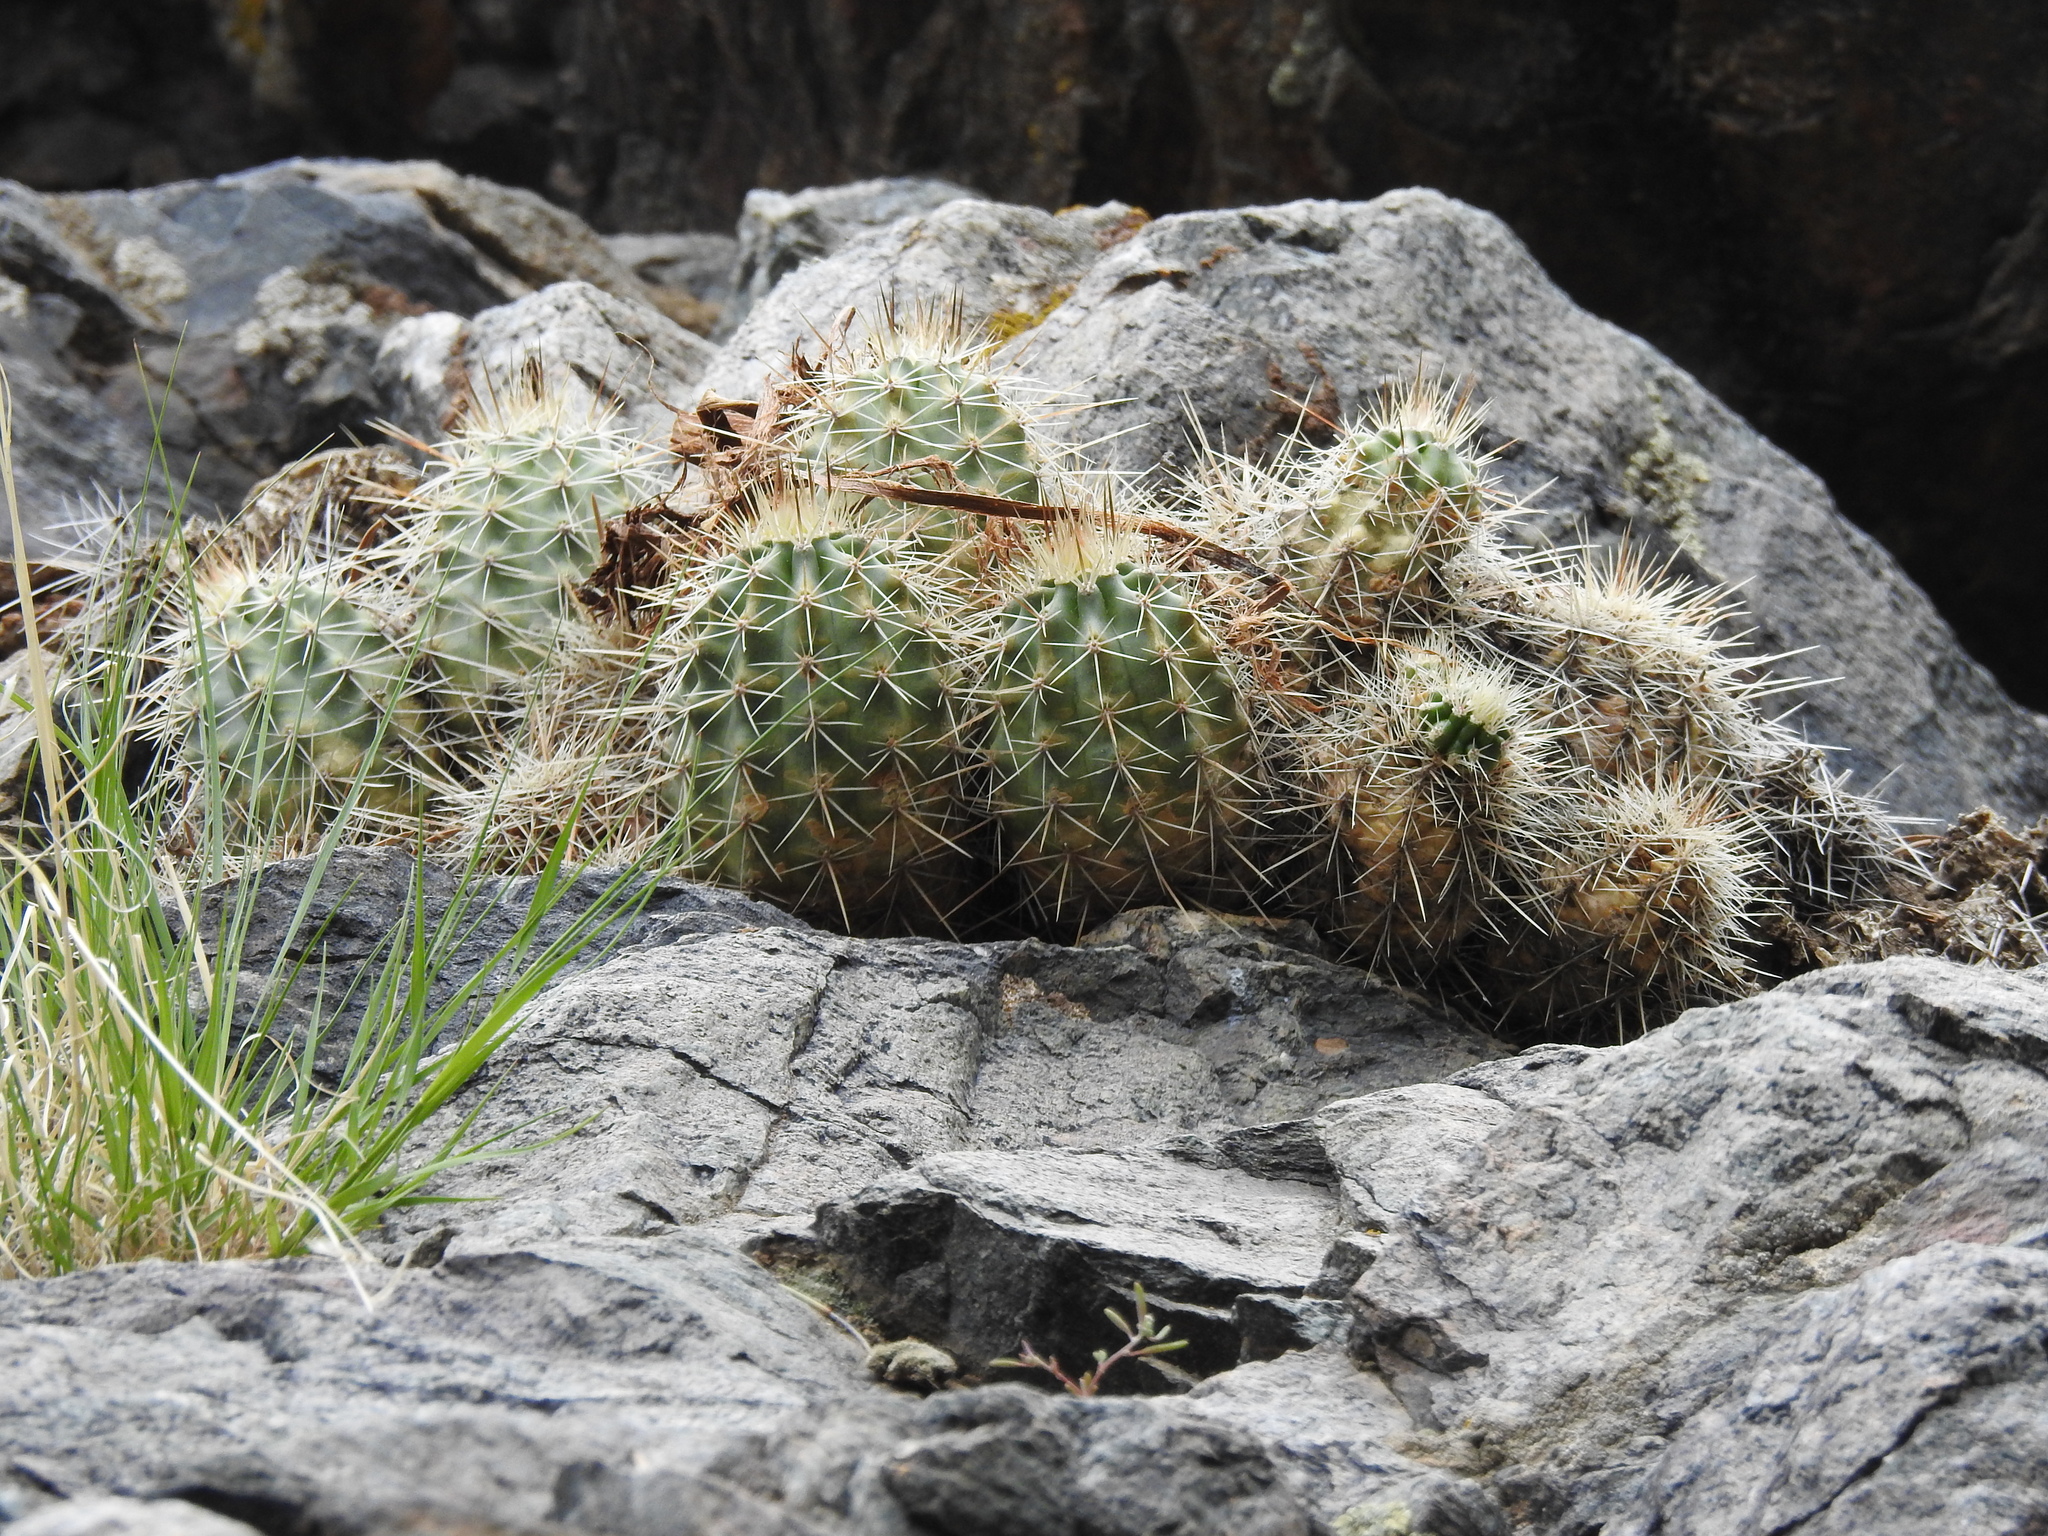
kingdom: Plantae
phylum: Tracheophyta
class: Magnoliopsida
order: Caryophyllales
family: Cactaceae
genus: Echinocereus
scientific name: Echinocereus coccineus
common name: Scarlet hedgehog cactus
